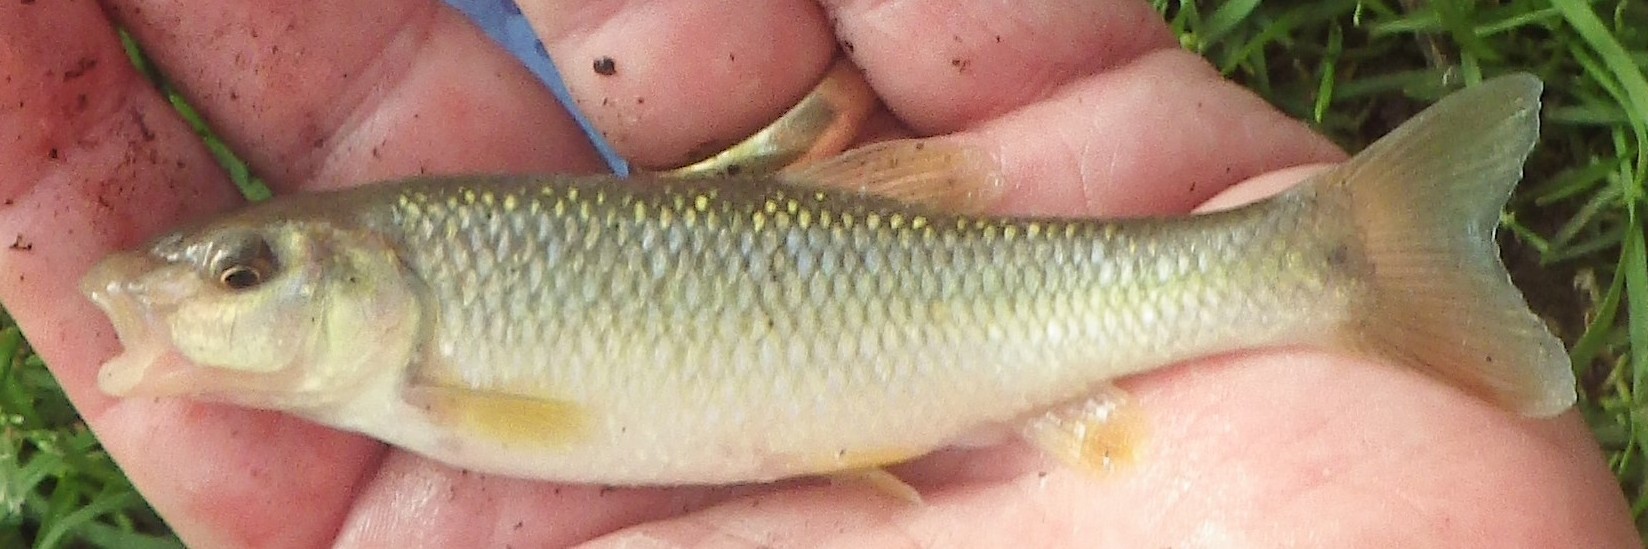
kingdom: Animalia
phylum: Chordata
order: Cypriniformes
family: Cyprinidae
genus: Nocomis
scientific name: Nocomis biguttatus
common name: Hornyhead chub
